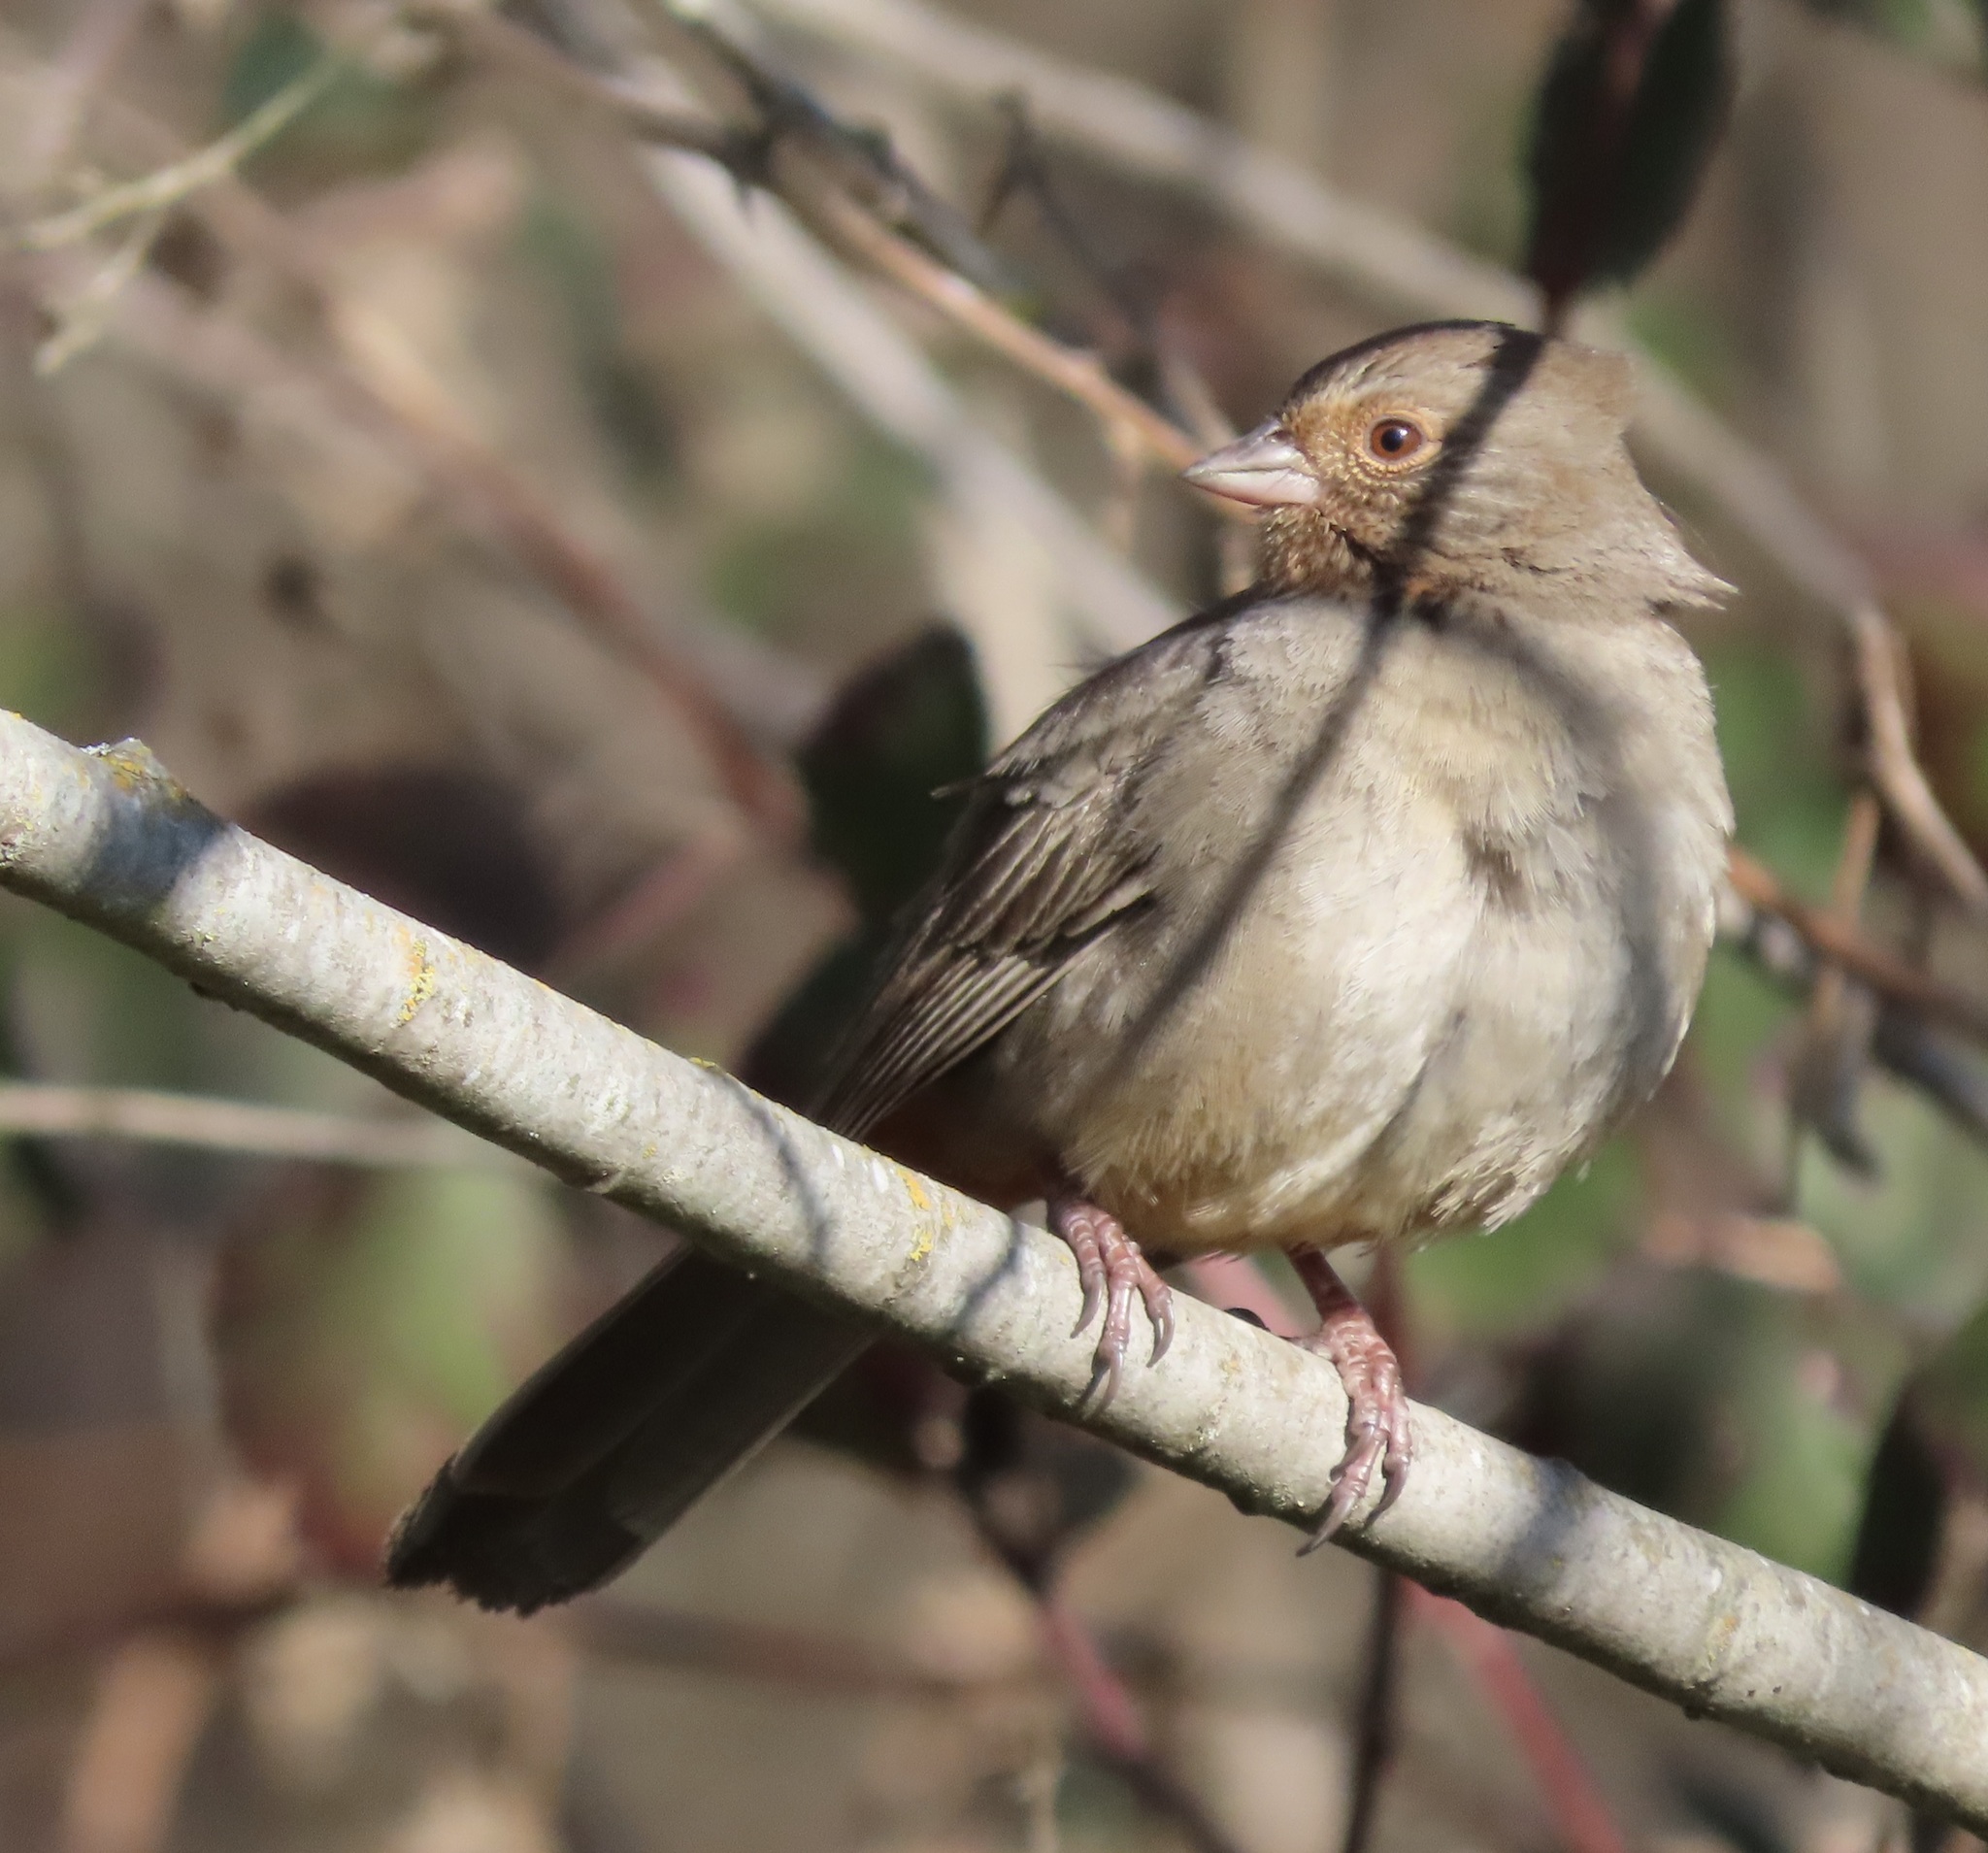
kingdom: Animalia
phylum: Chordata
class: Aves
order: Passeriformes
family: Passerellidae
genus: Melozone
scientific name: Melozone crissalis
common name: California towhee
